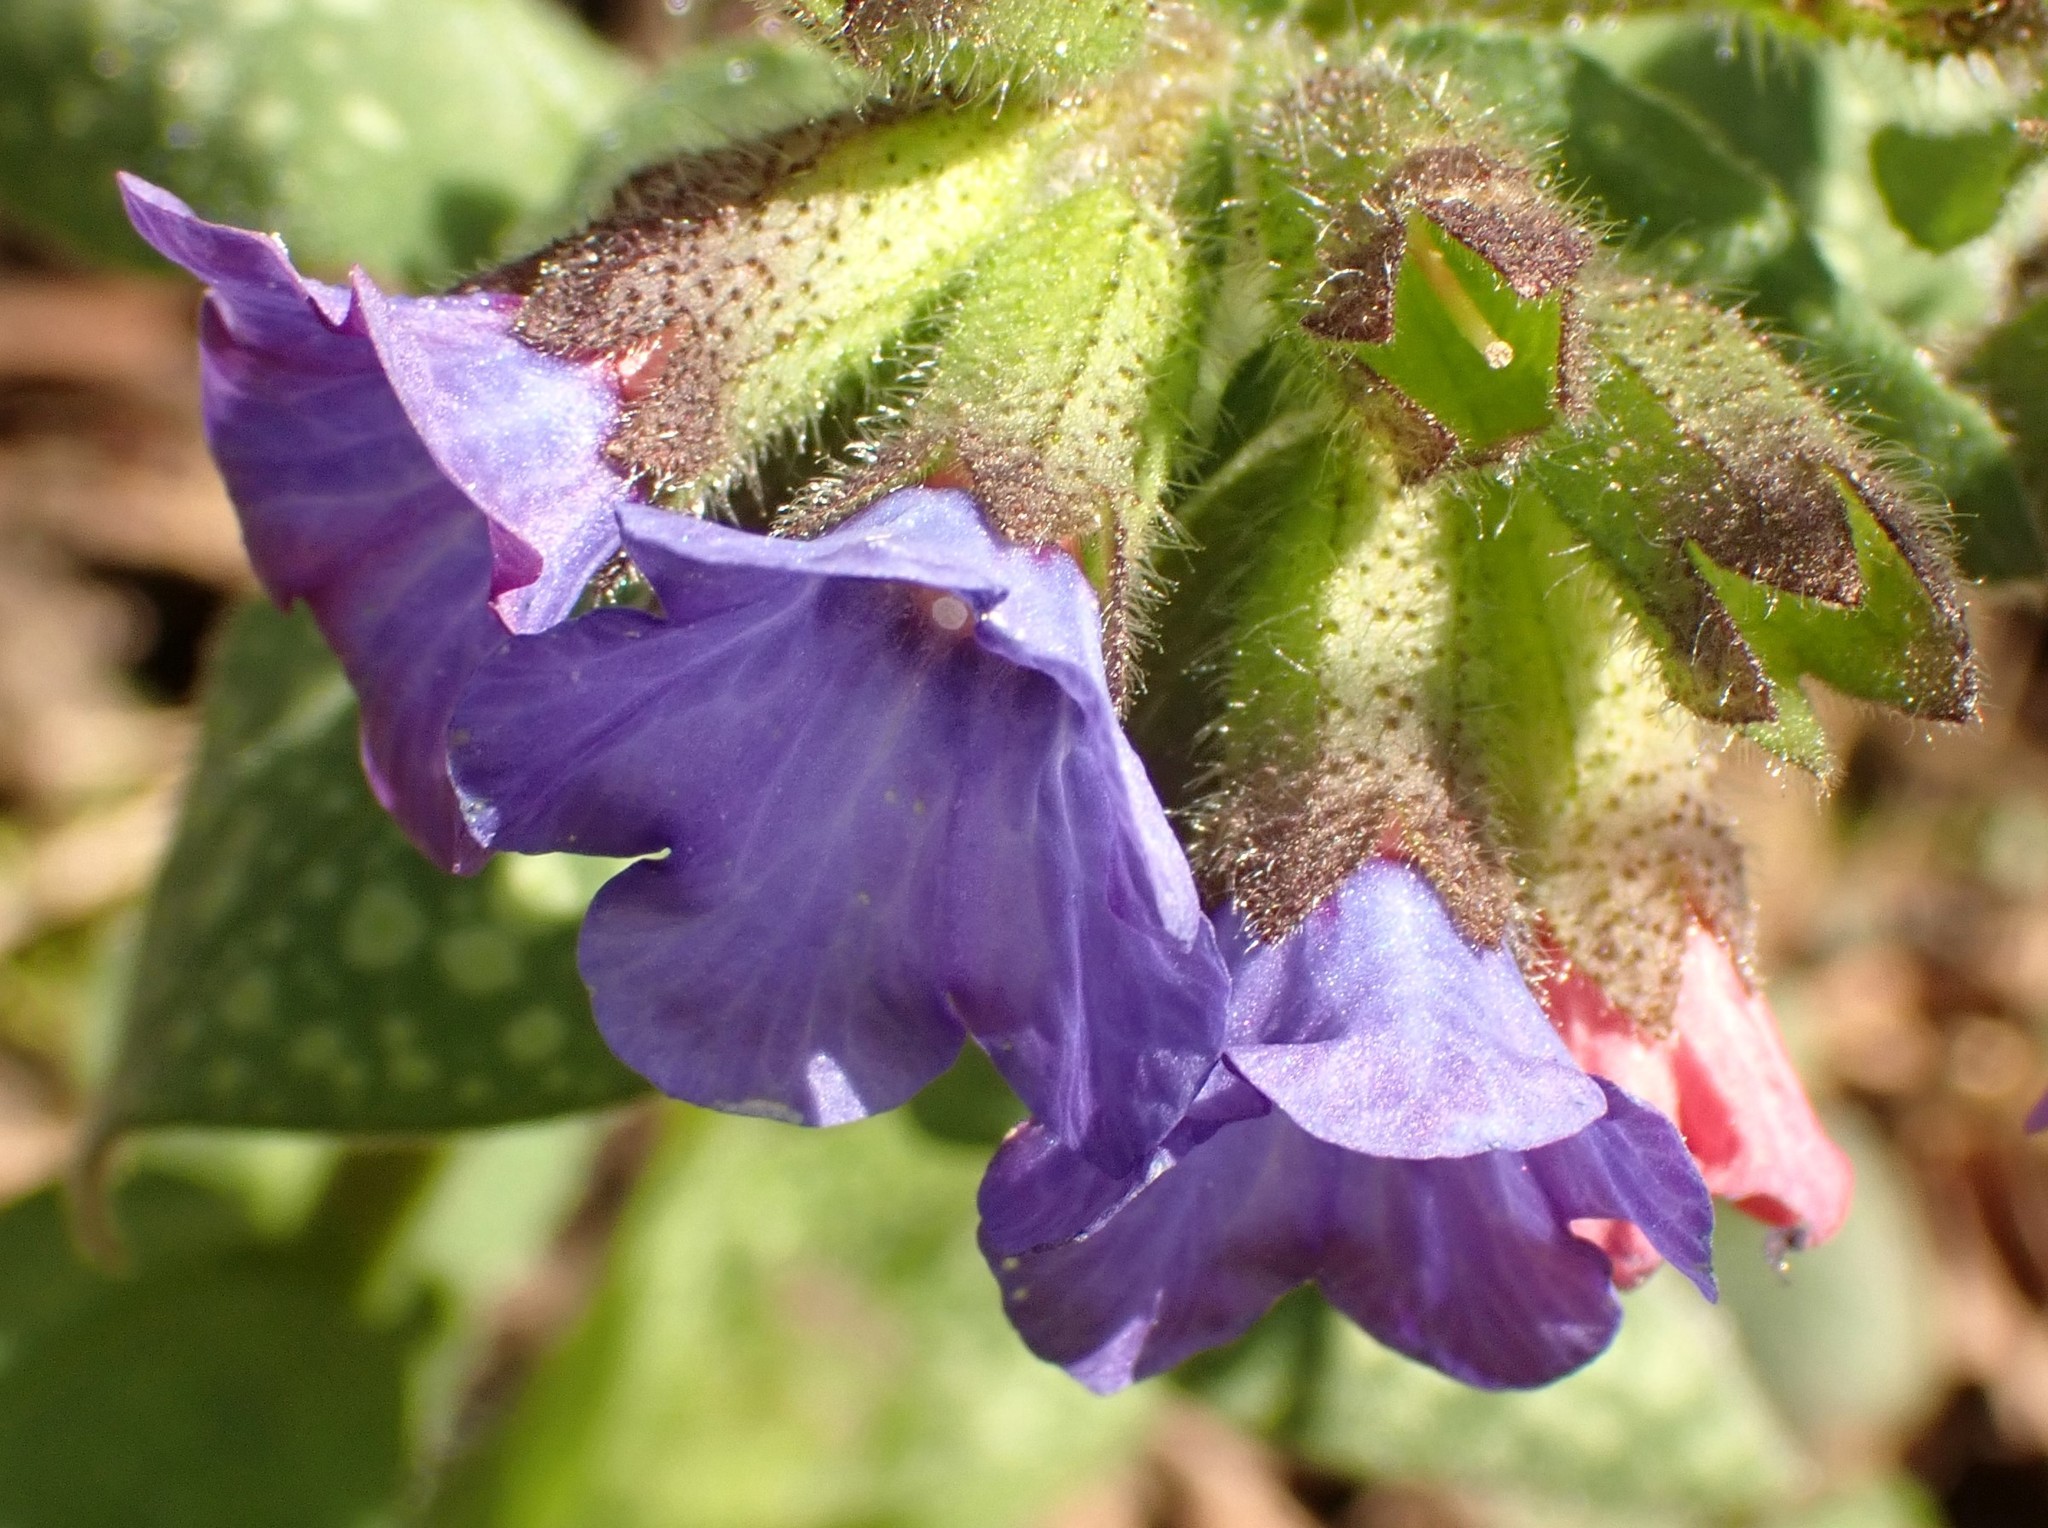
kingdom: Plantae
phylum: Tracheophyta
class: Magnoliopsida
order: Boraginales
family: Boraginaceae
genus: Pulmonaria
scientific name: Pulmonaria officinalis
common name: Lungwort
